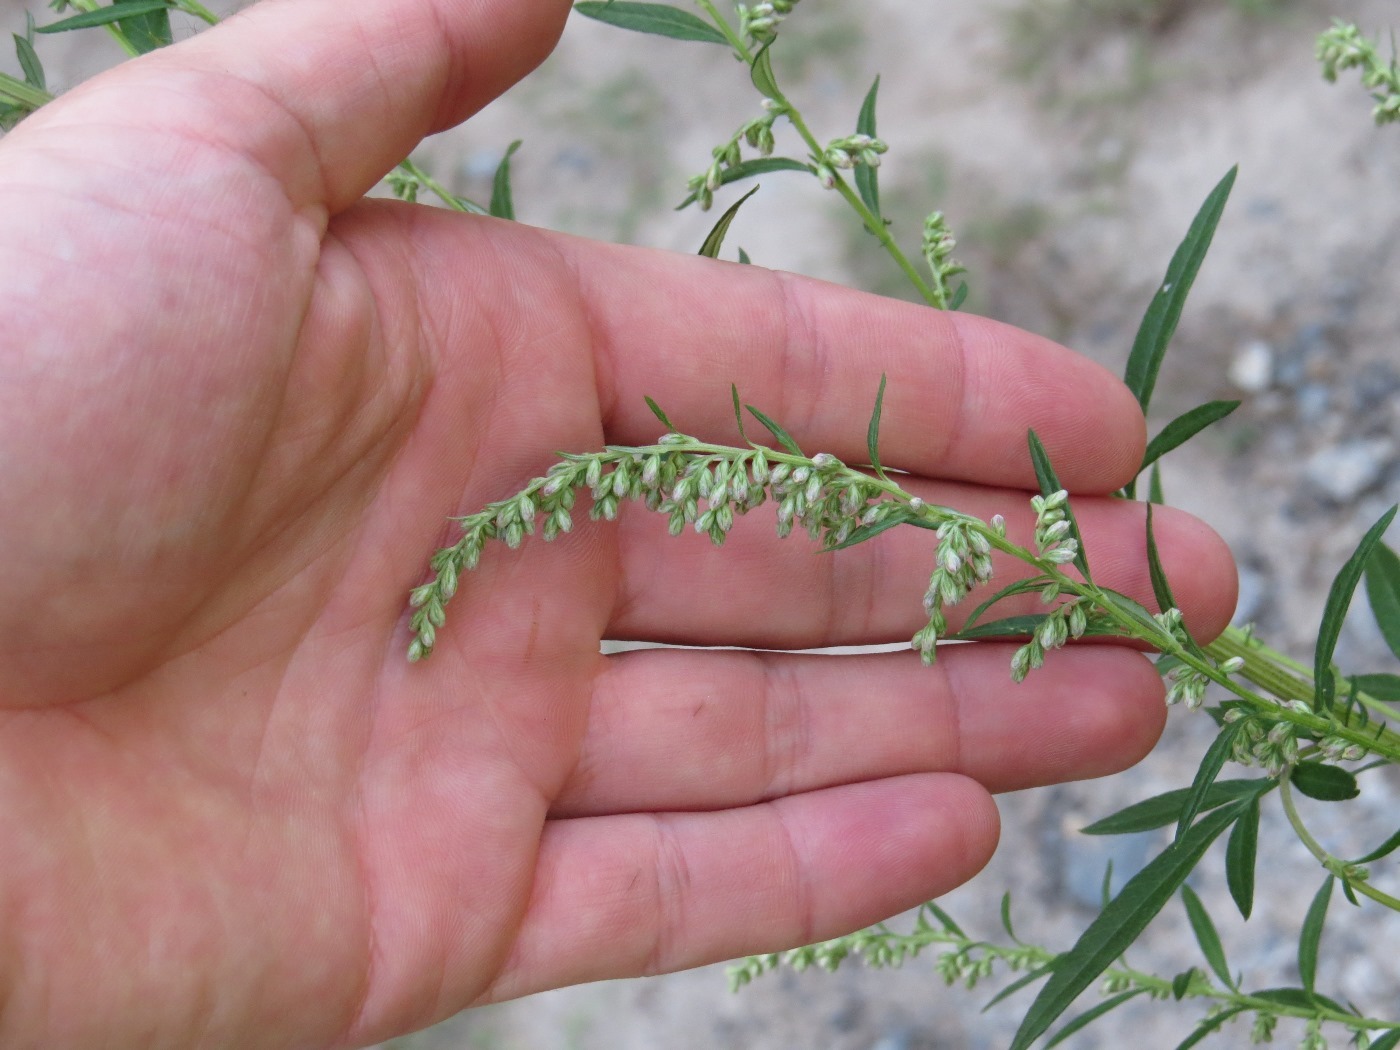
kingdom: Plantae
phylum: Tracheophyta
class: Magnoliopsida
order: Asterales
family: Asteraceae
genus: Artemisia
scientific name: Artemisia vulgaris
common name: Mugwort
